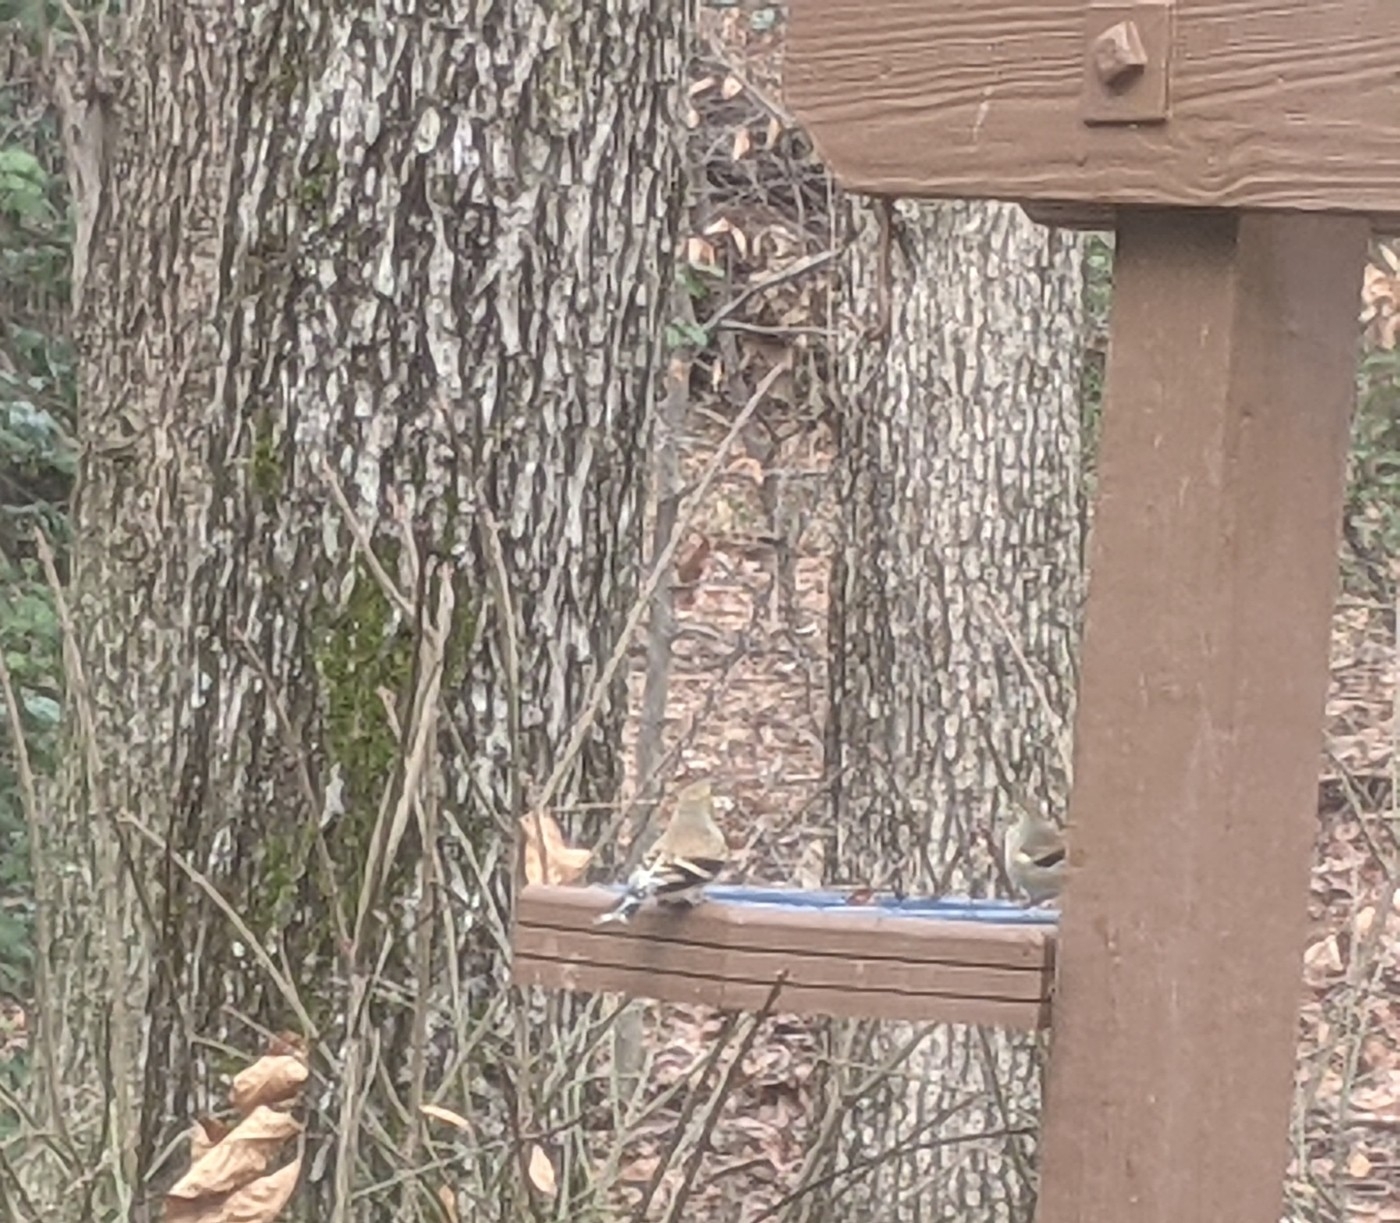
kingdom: Animalia
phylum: Chordata
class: Aves
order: Passeriformes
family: Fringillidae
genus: Spinus
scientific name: Spinus tristis
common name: American goldfinch
